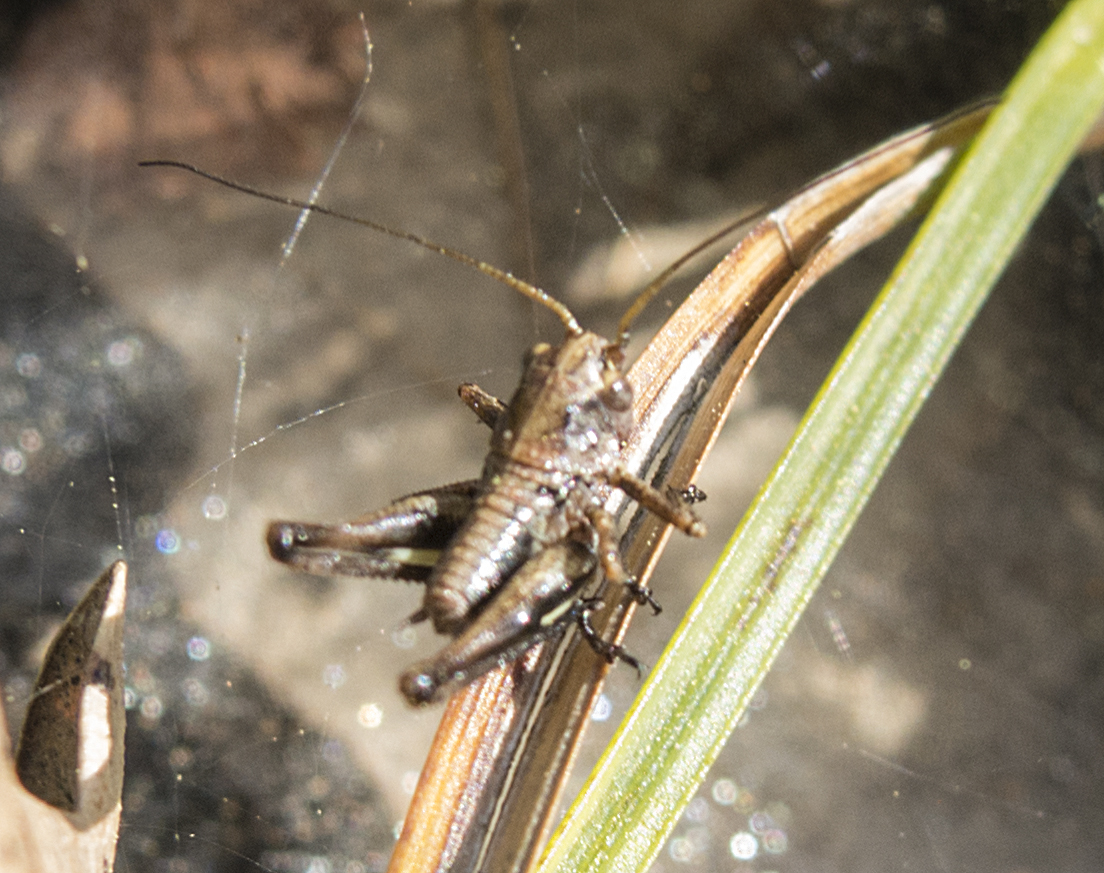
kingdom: Animalia
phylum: Arthropoda
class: Insecta
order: Orthoptera
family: Tettigoniidae
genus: Decticus
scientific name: Decticus albifrons
